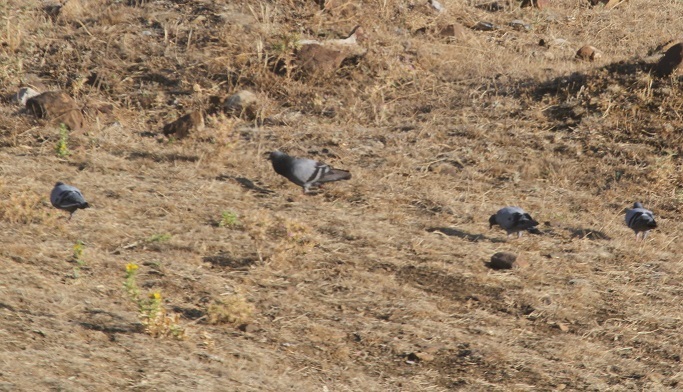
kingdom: Animalia
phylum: Chordata
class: Aves
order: Columbiformes
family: Columbidae
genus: Columba
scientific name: Columba livia
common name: Rock pigeon
